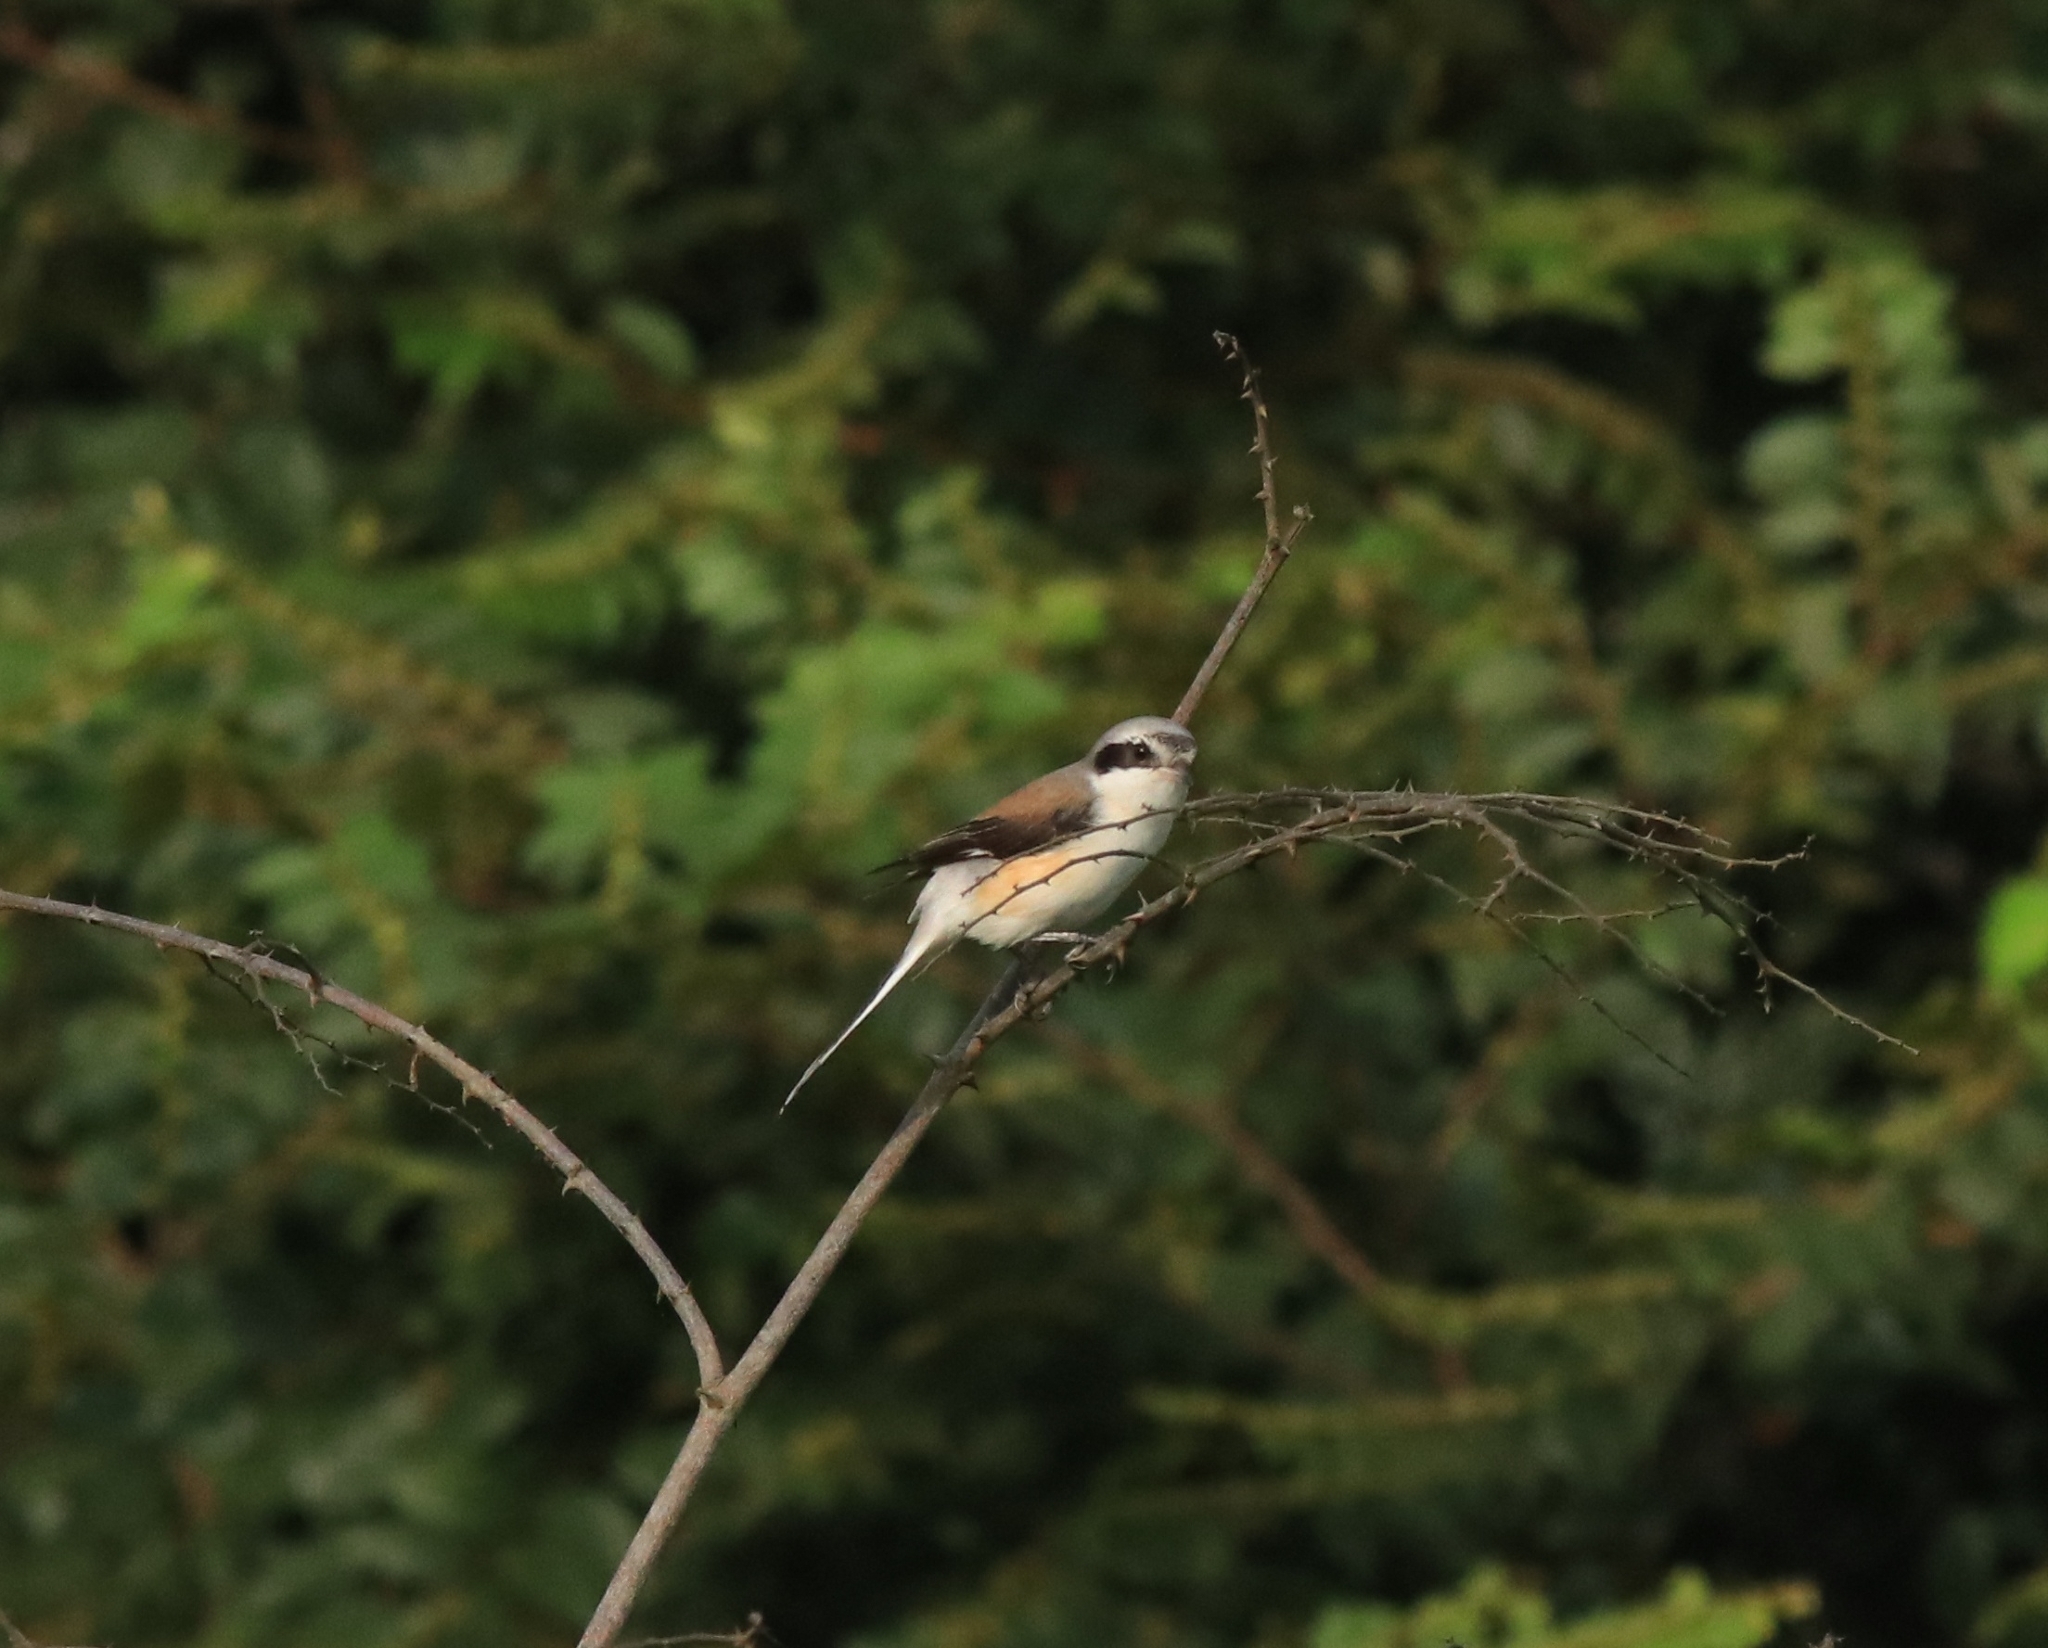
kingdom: Animalia
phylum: Chordata
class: Aves
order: Passeriformes
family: Laniidae
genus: Lanius
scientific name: Lanius vittatus
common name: Bay-backed shrike
